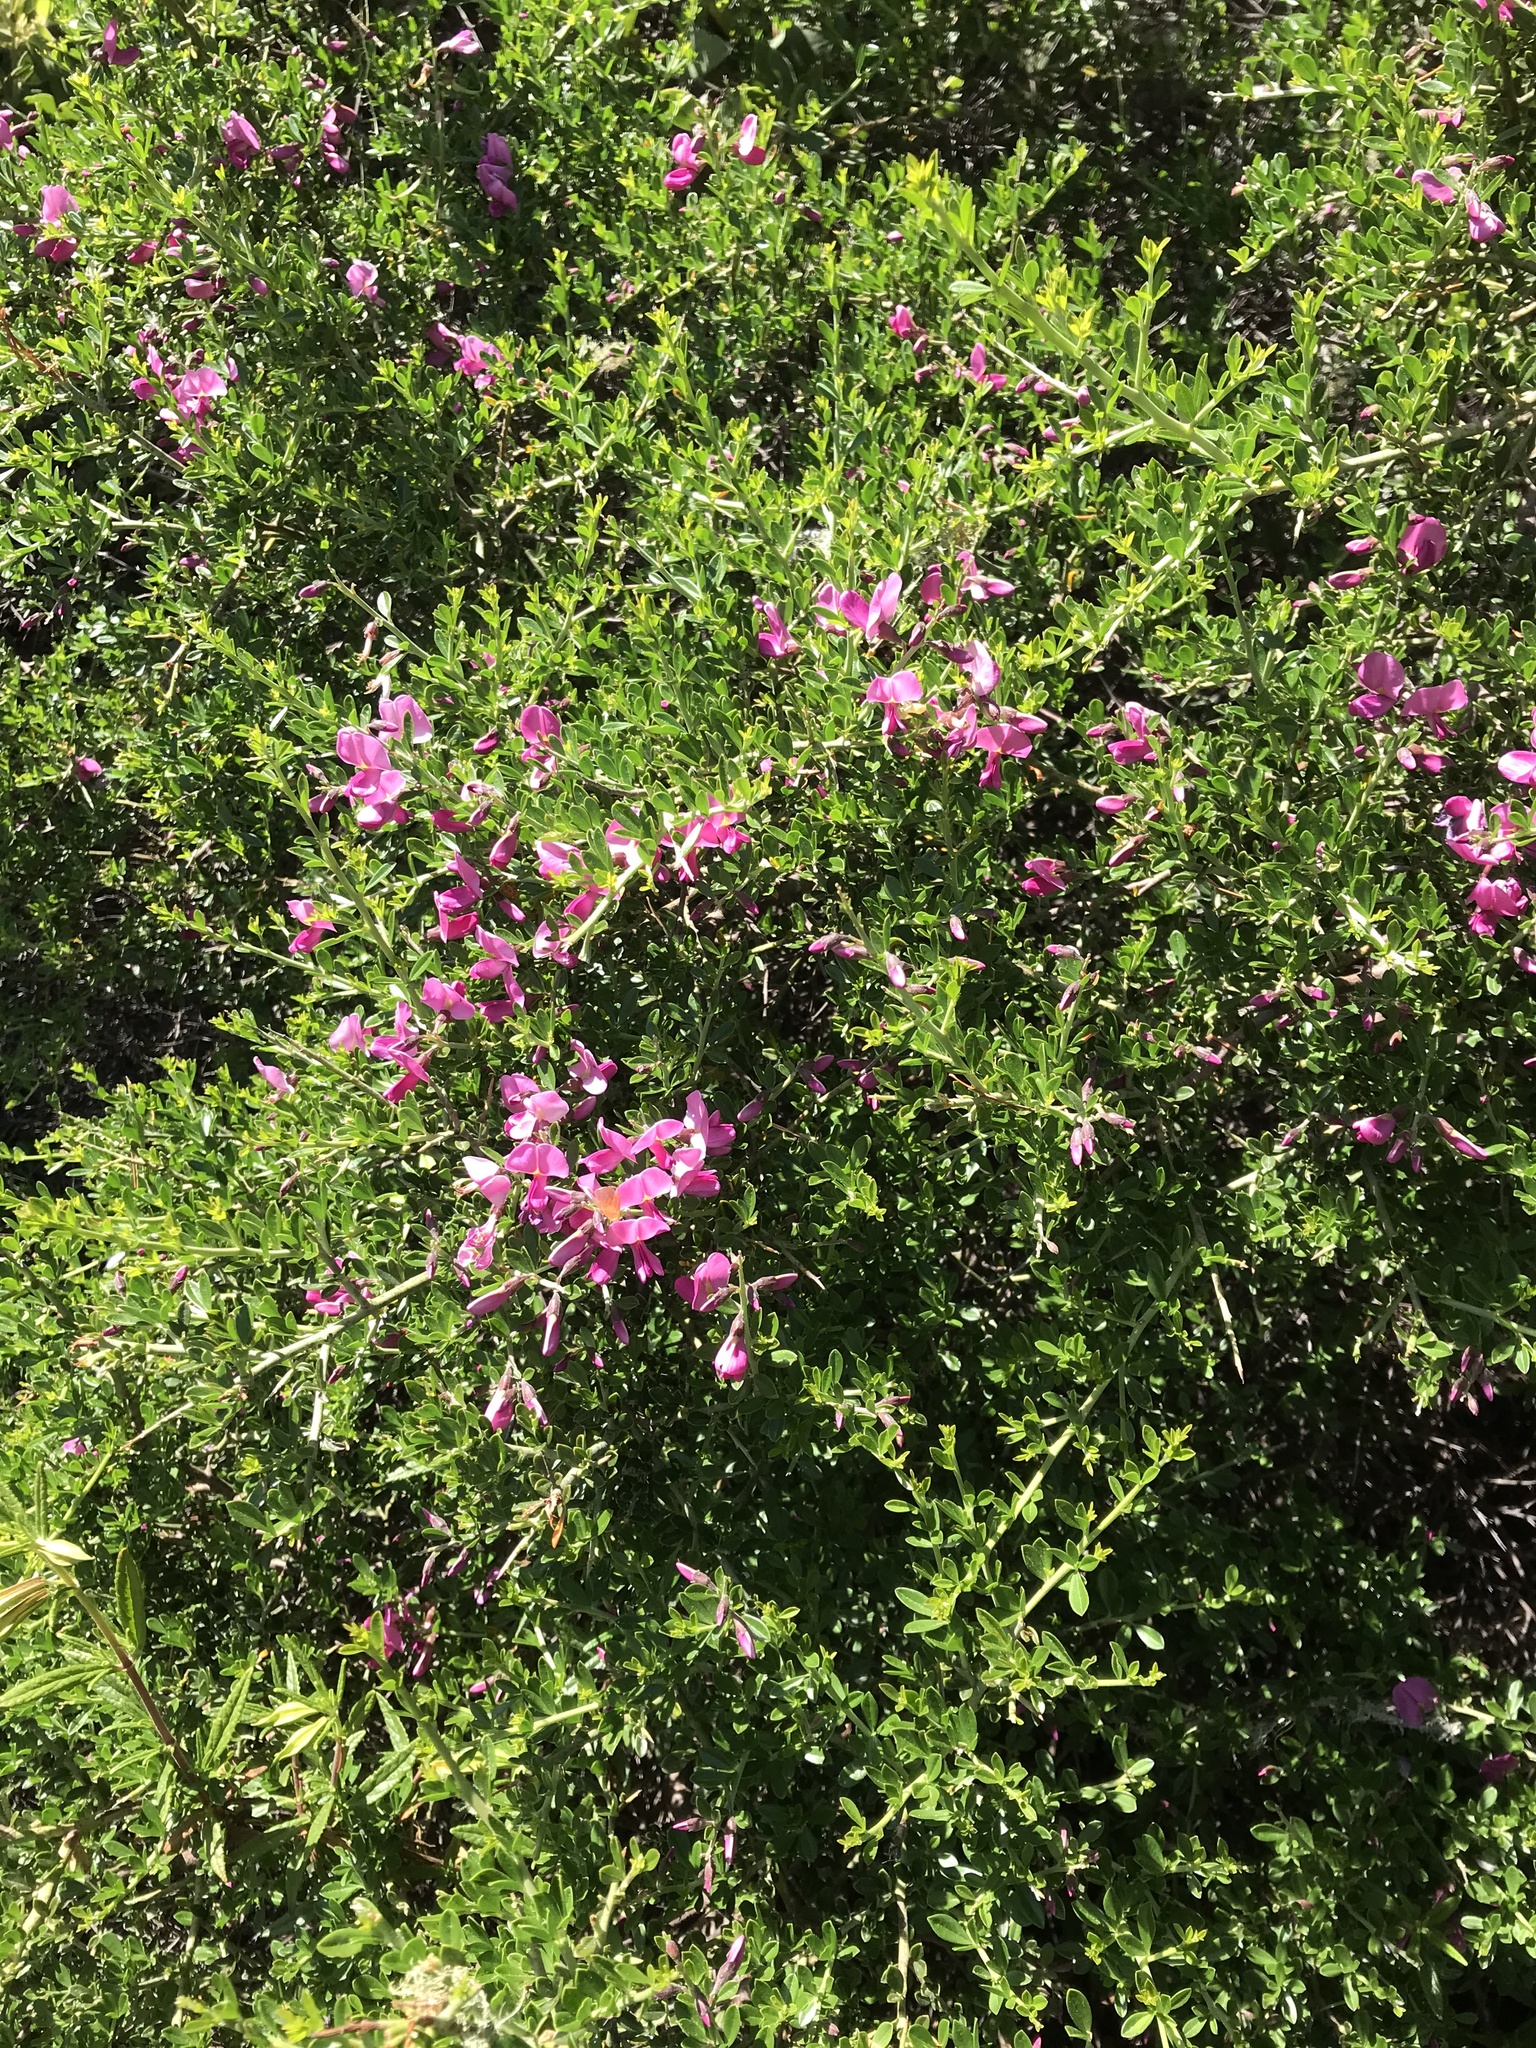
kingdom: Plantae
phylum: Tracheophyta
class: Magnoliopsida
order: Fabales
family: Fabaceae
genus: Pickeringia
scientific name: Pickeringia montana
